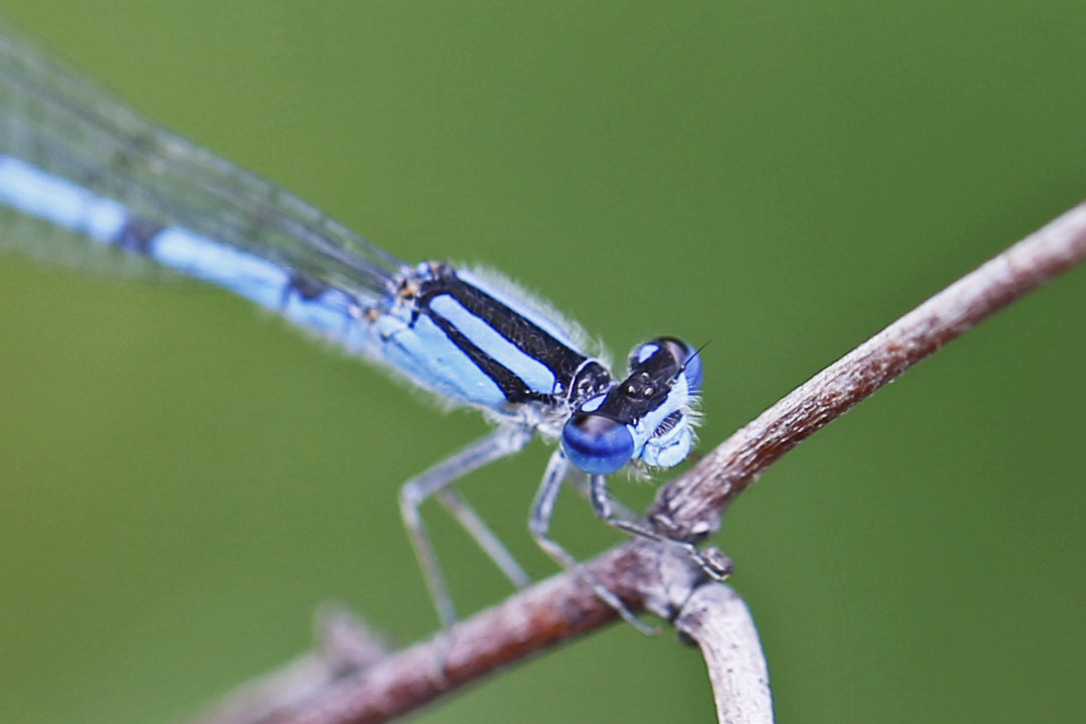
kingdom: Animalia
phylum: Arthropoda
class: Insecta
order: Odonata
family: Coenagrionidae
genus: Enallagma
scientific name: Enallagma civile
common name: Damselfly
